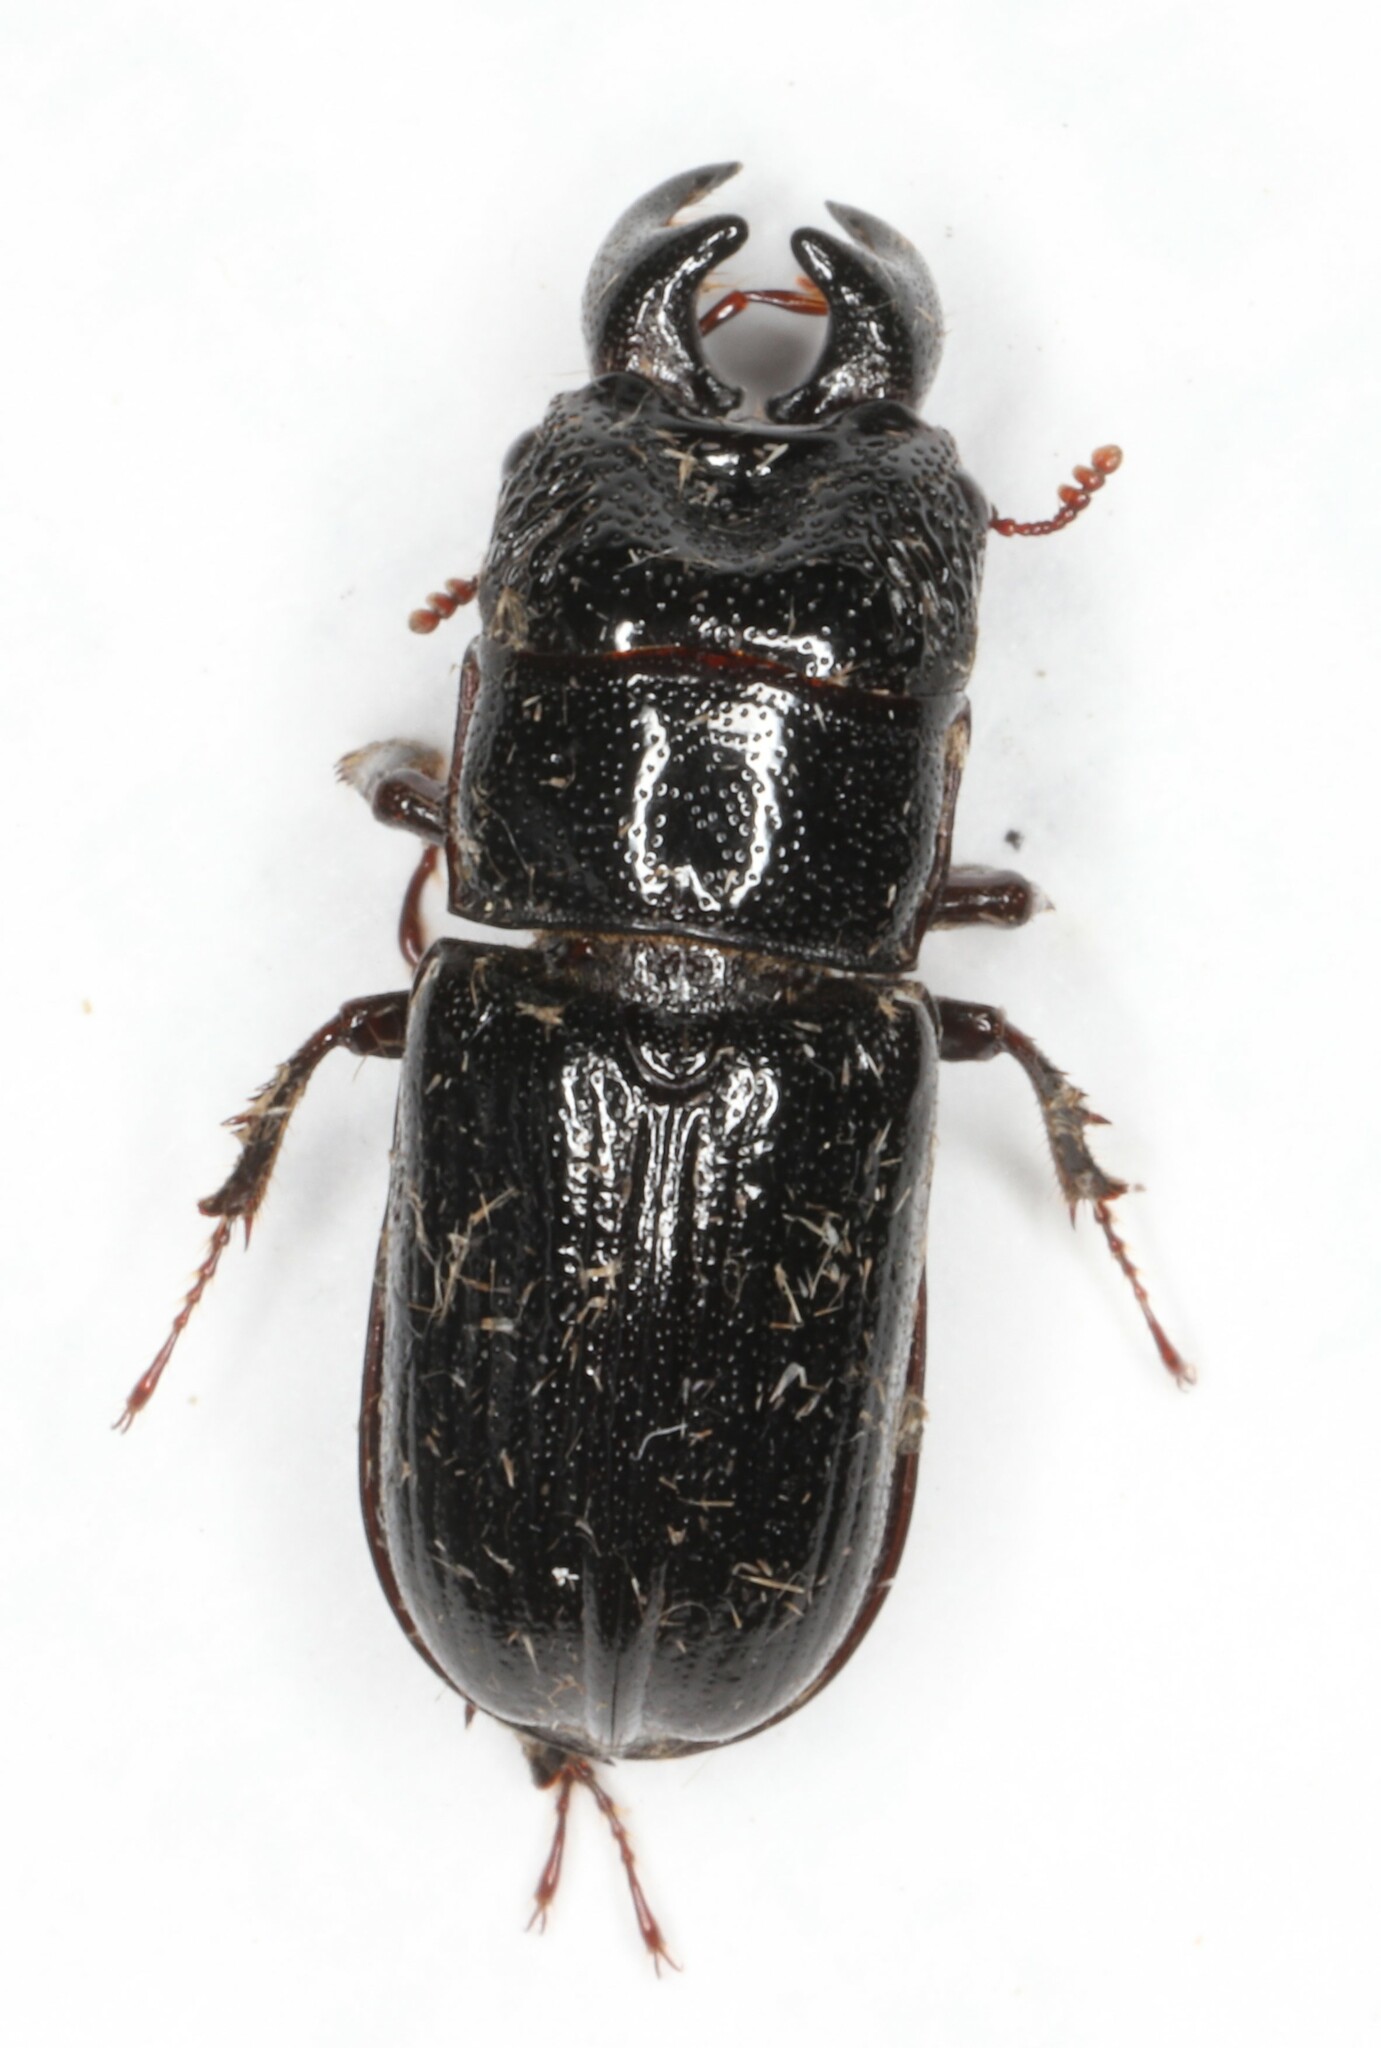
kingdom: Animalia
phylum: Arthropoda
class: Insecta
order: Coleoptera
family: Lucanidae
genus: Ceruchus
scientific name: Ceruchus piceus
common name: Red-rot decay stag beetle
